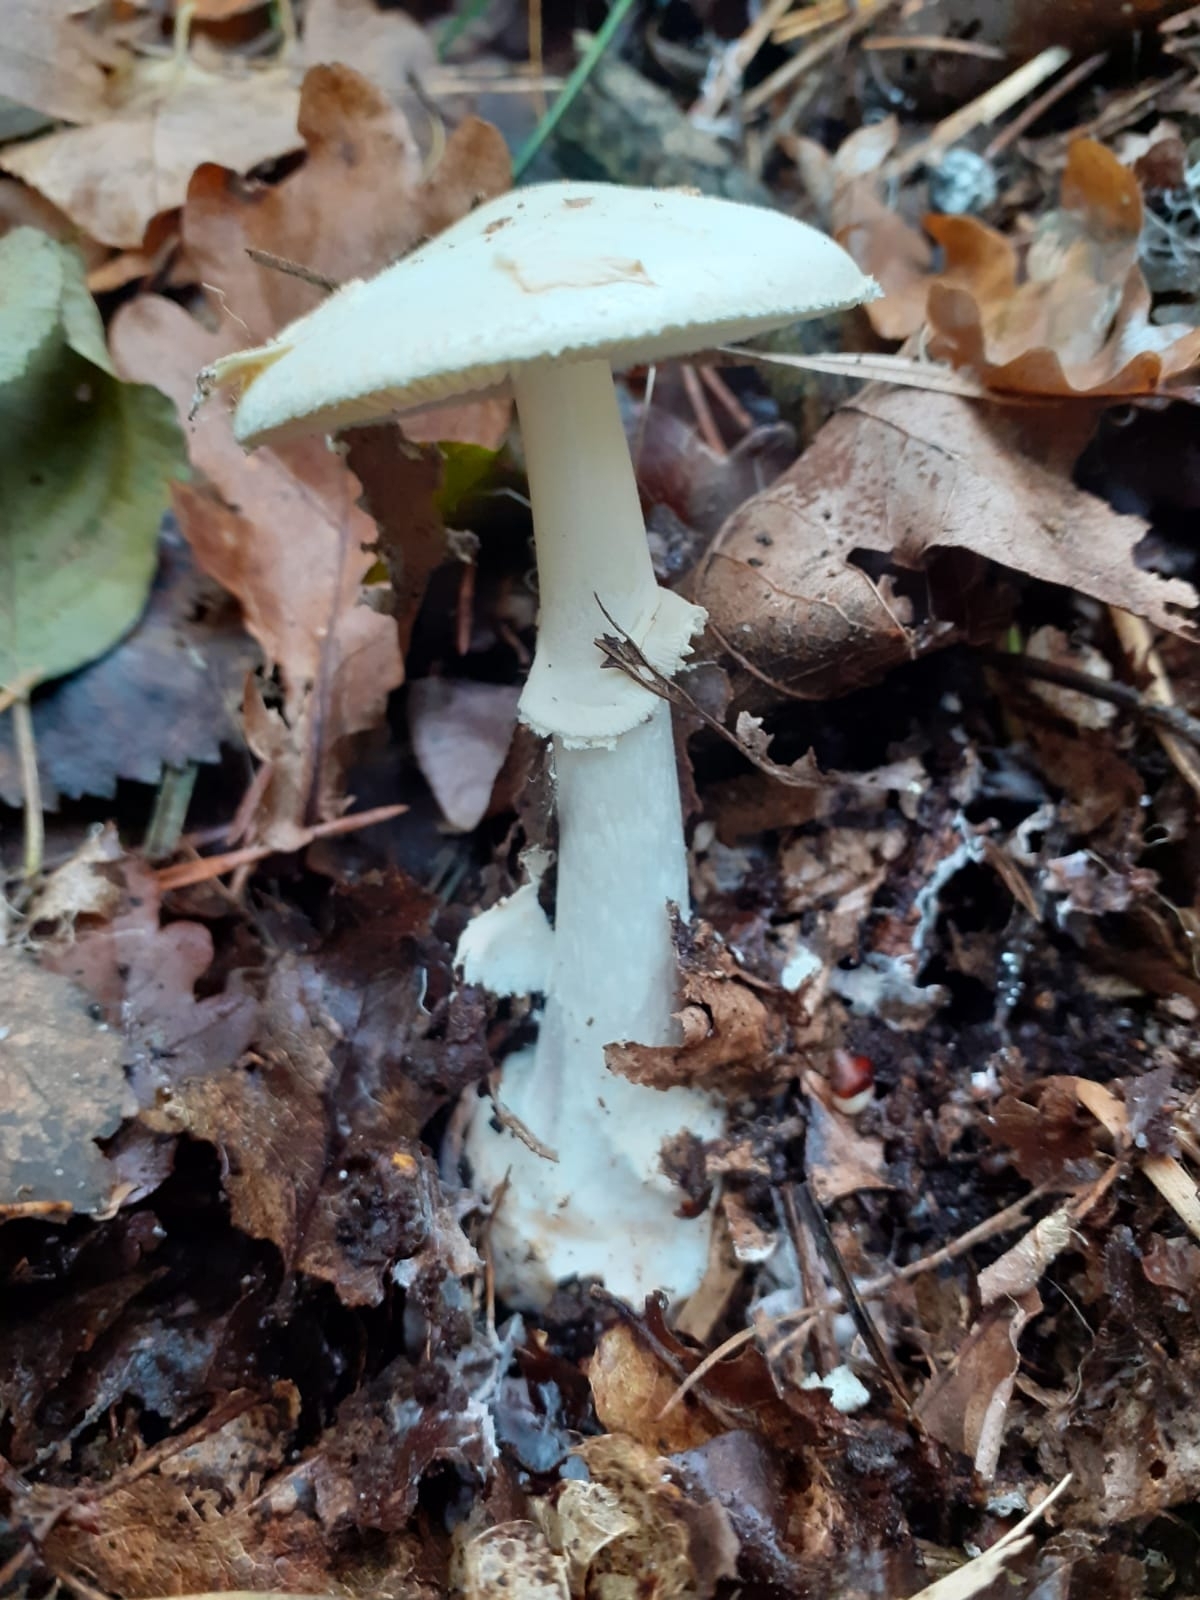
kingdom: Fungi
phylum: Basidiomycota
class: Agaricomycetes
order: Agaricales
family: Amanitaceae
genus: Amanita
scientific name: Amanita citrina
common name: False death-cap
